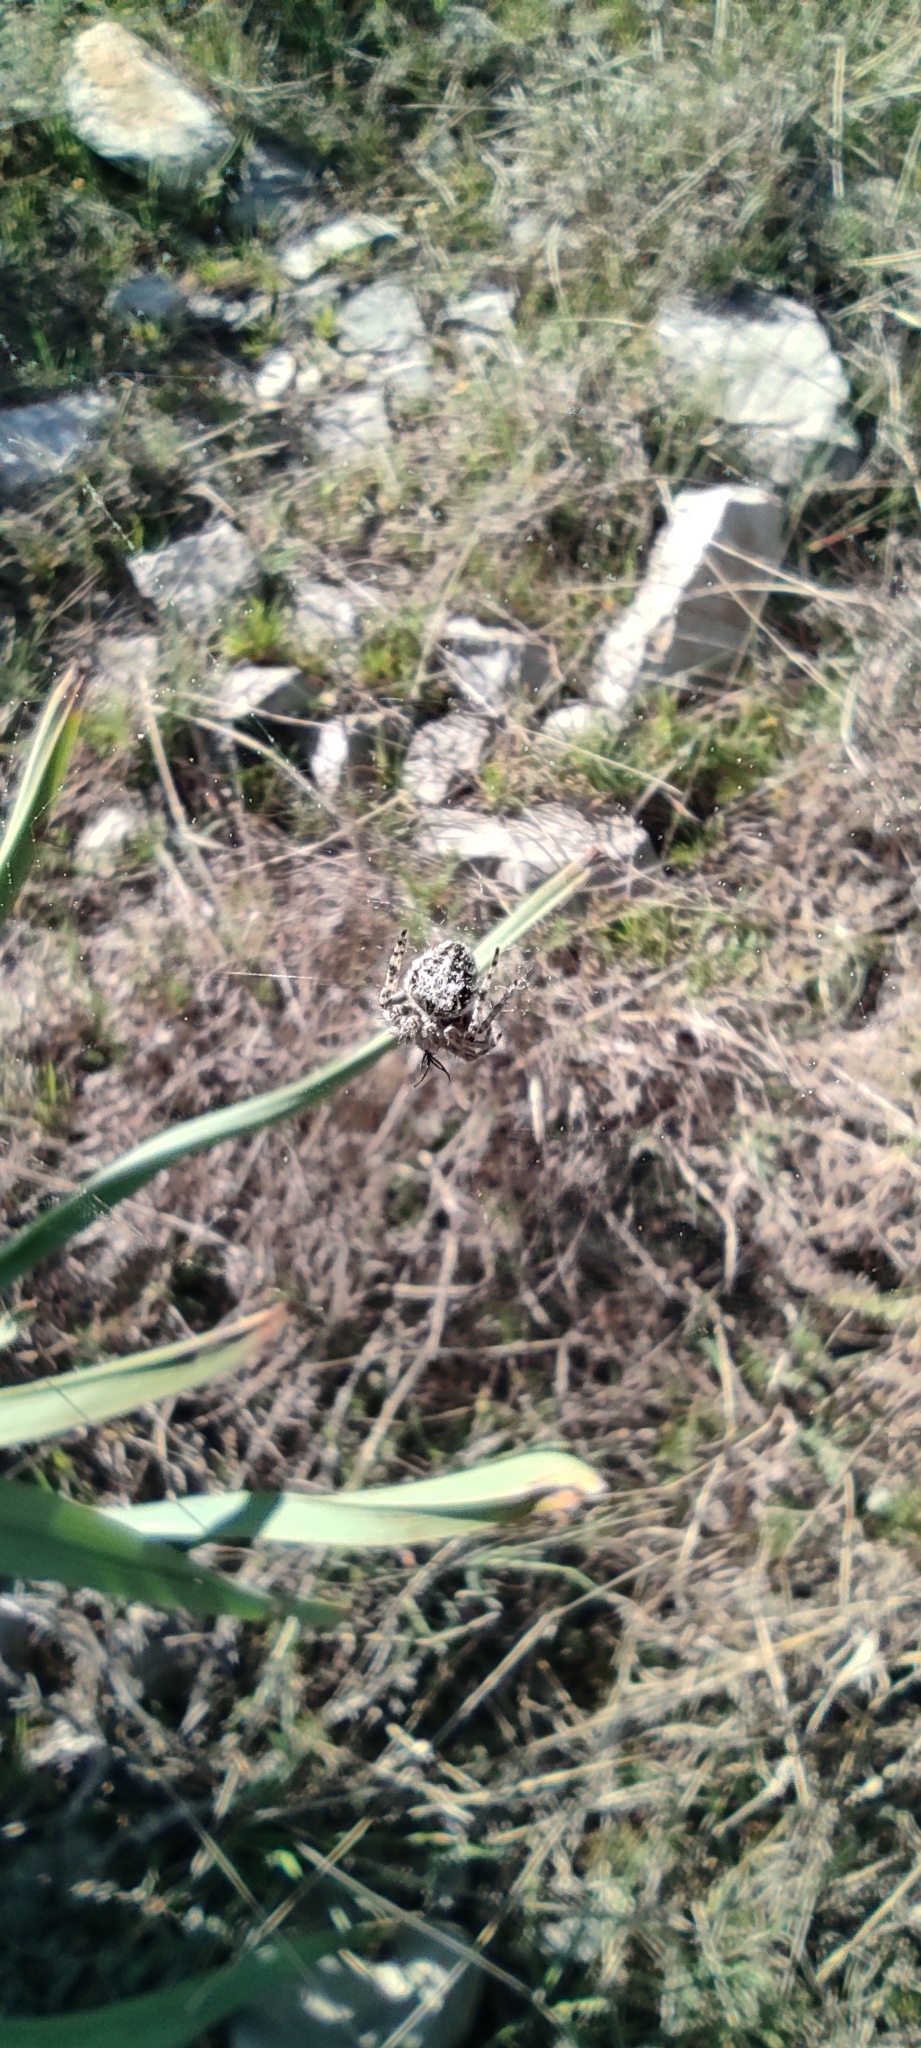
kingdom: Animalia
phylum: Arthropoda
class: Arachnida
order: Araneae
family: Araneidae
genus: Agalenatea
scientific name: Agalenatea redii
